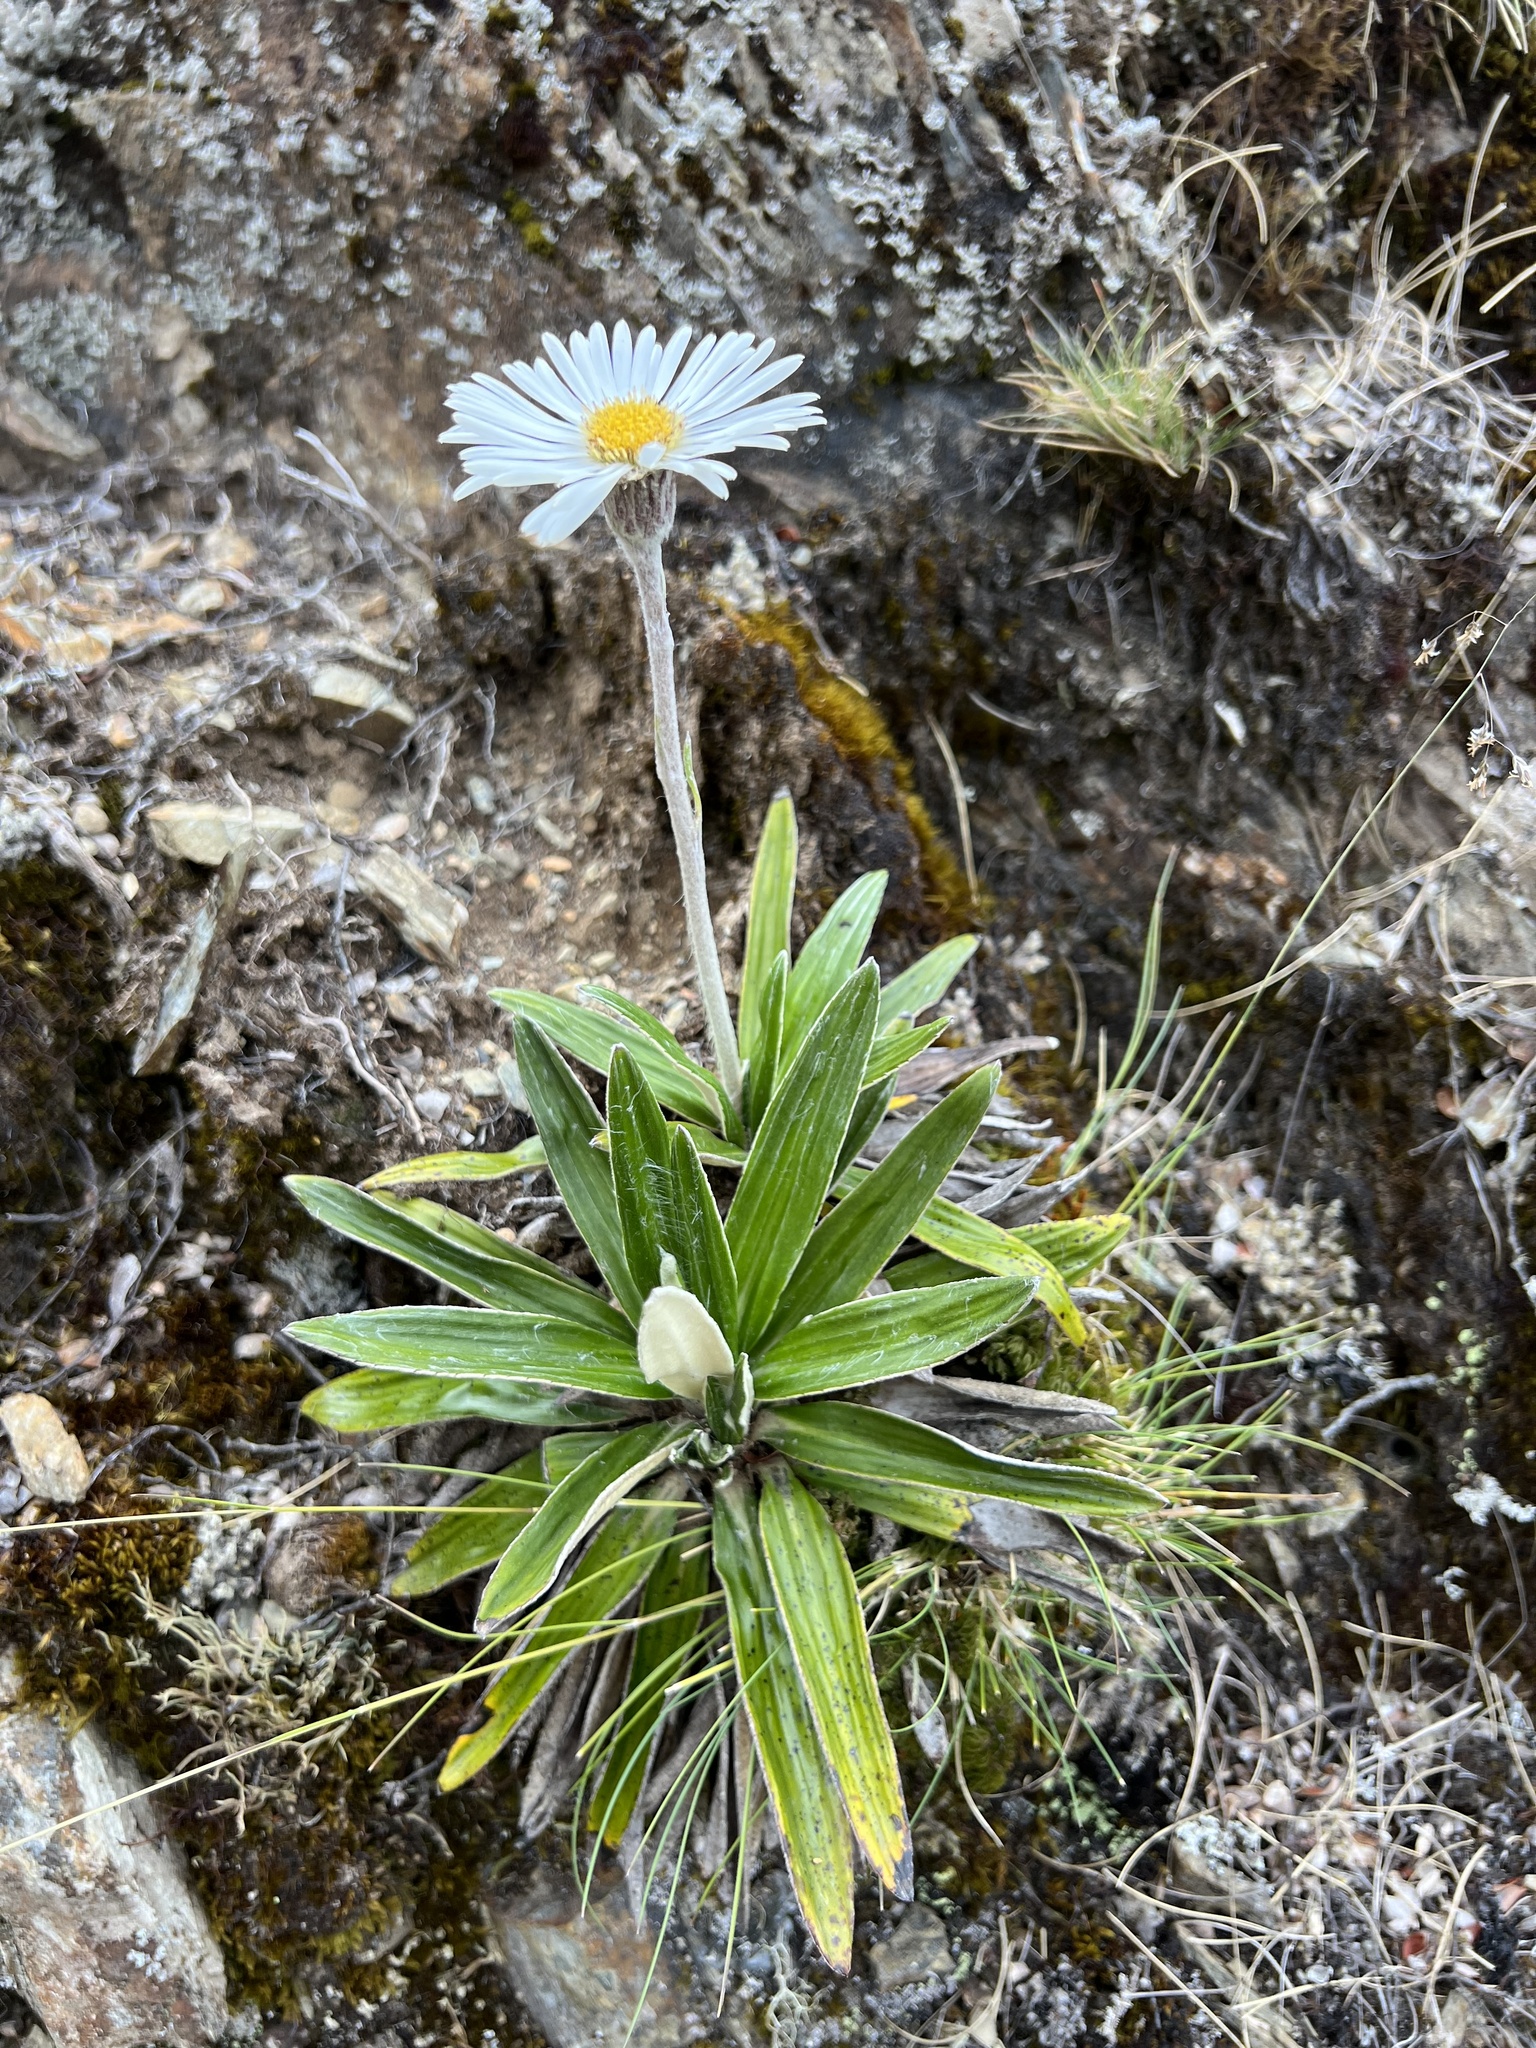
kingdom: Plantae
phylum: Tracheophyta
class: Magnoliopsida
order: Asterales
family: Asteraceae
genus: Celmisia
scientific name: Celmisia spectabilis
